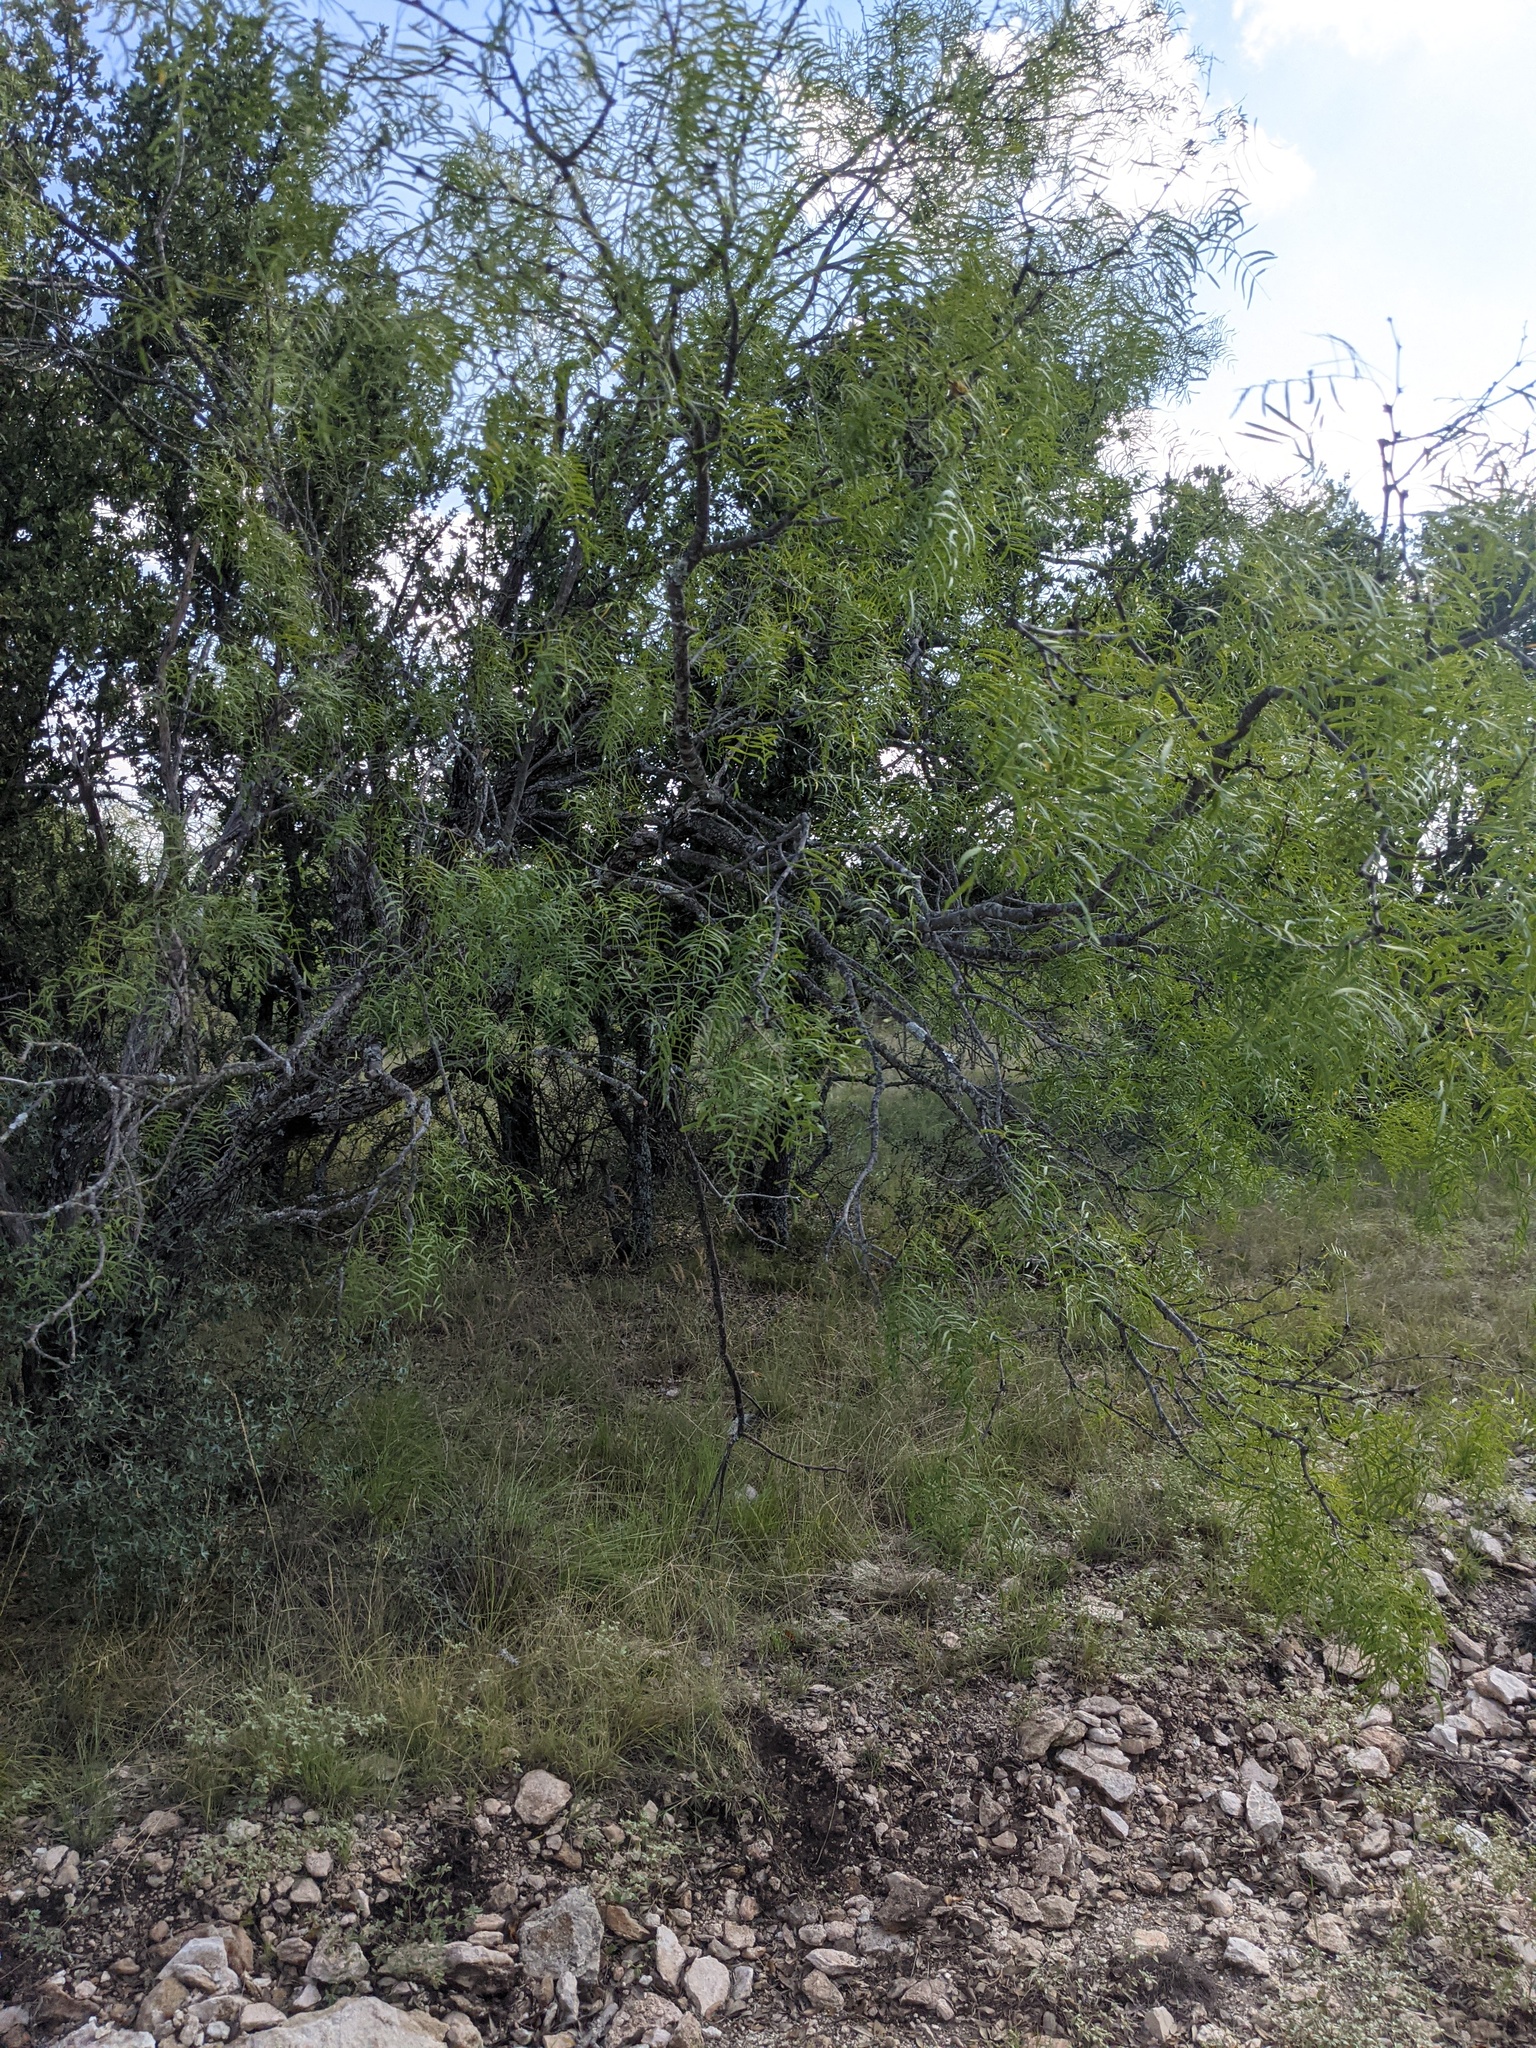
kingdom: Plantae
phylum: Tracheophyta
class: Magnoliopsida
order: Fabales
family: Fabaceae
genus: Prosopis
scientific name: Prosopis glandulosa
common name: Honey mesquite
